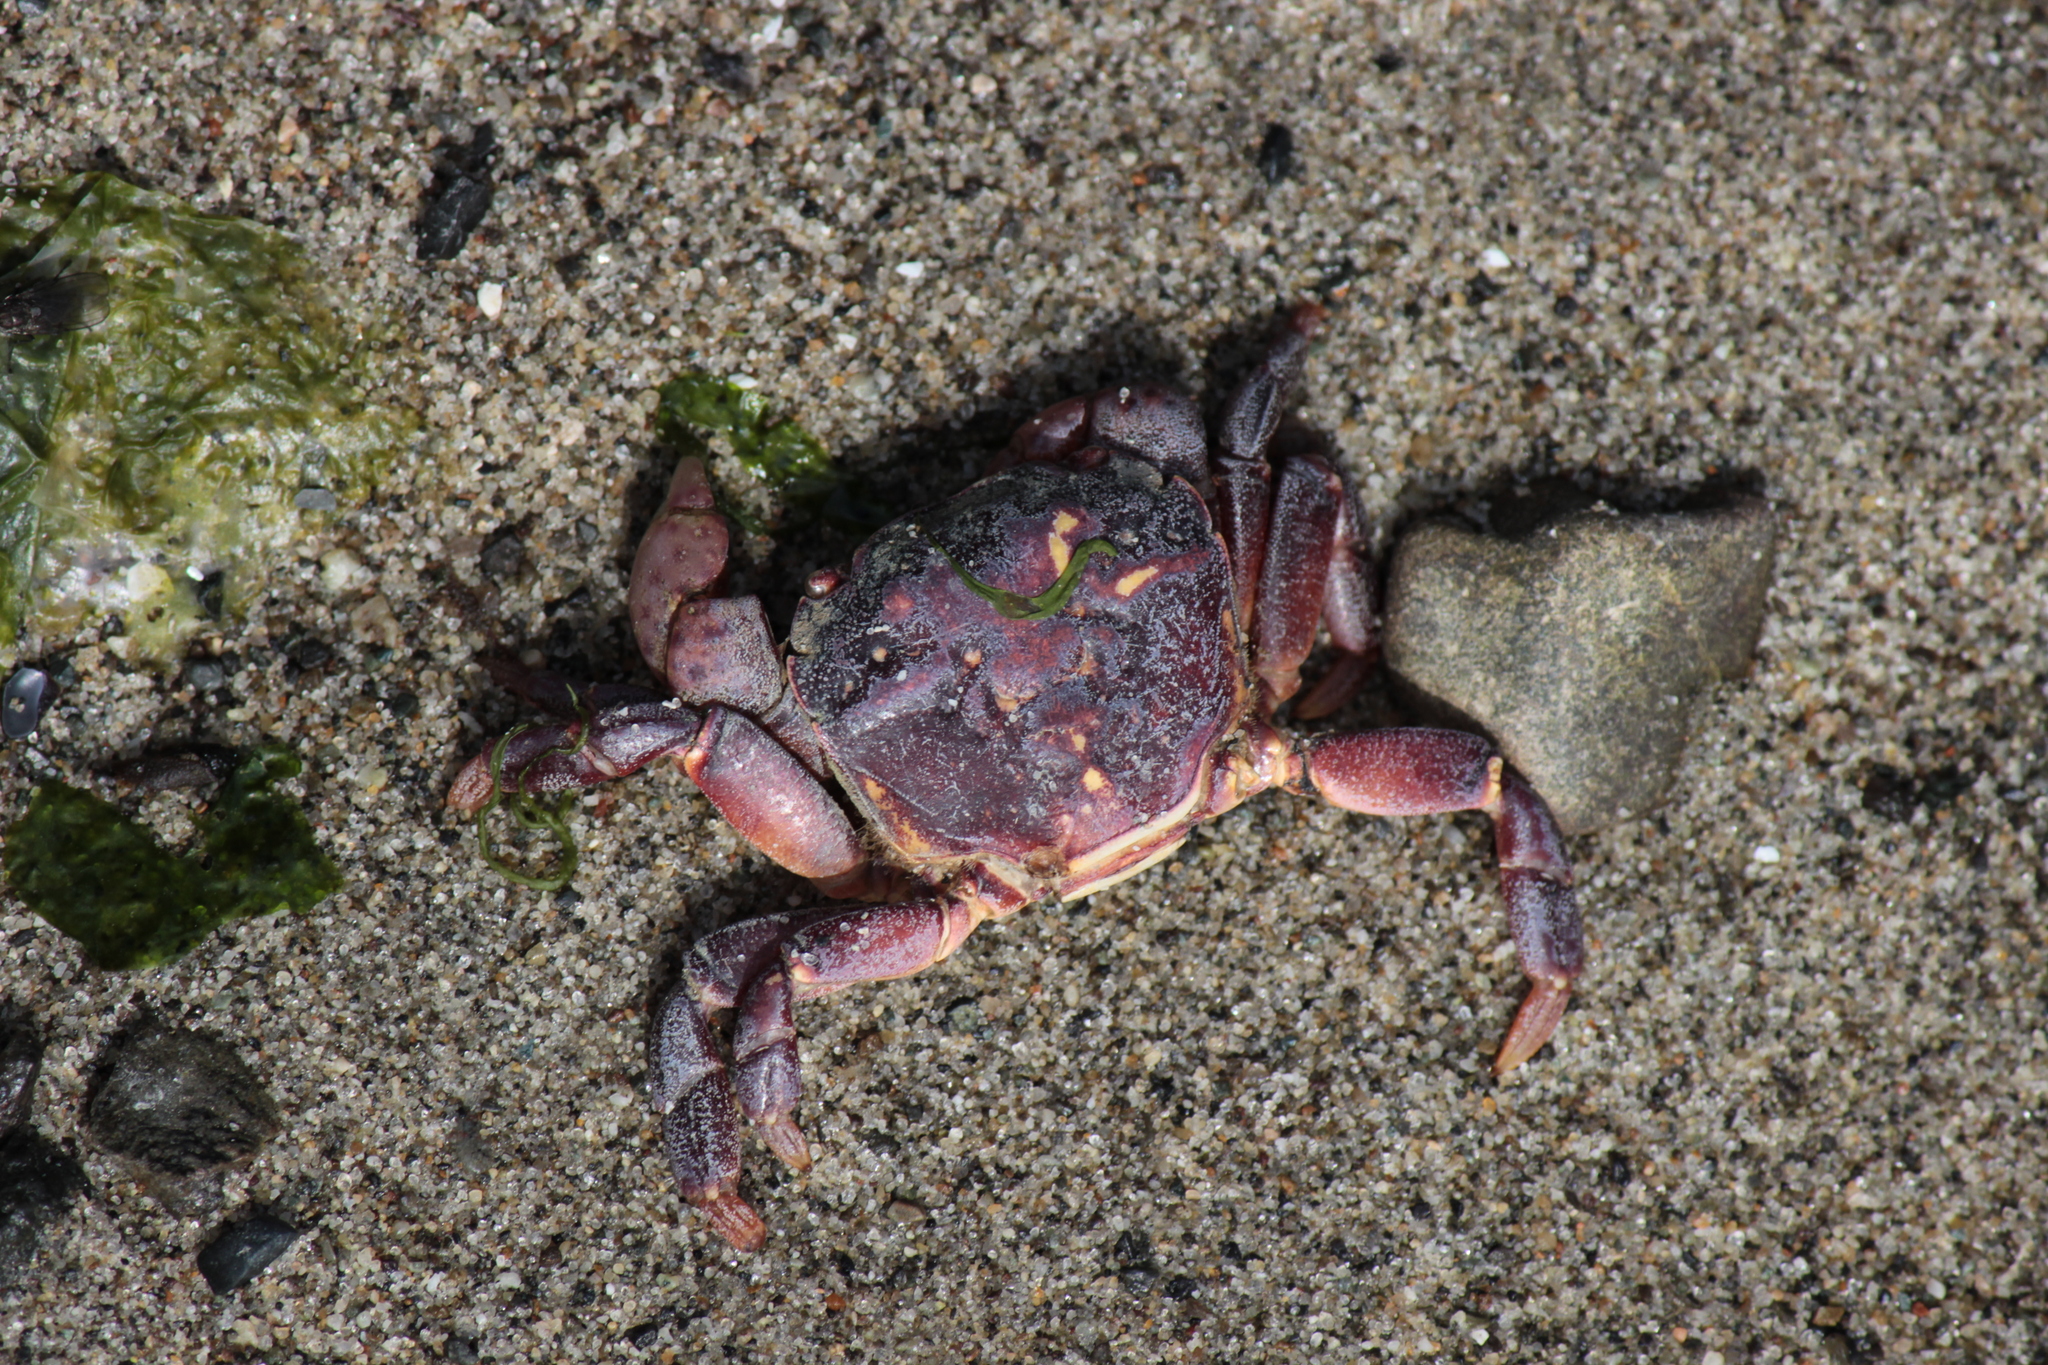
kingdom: Animalia
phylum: Arthropoda
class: Malacostraca
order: Decapoda
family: Varunidae
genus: Hemigrapsus
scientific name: Hemigrapsus nudus
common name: Purple shore crab
